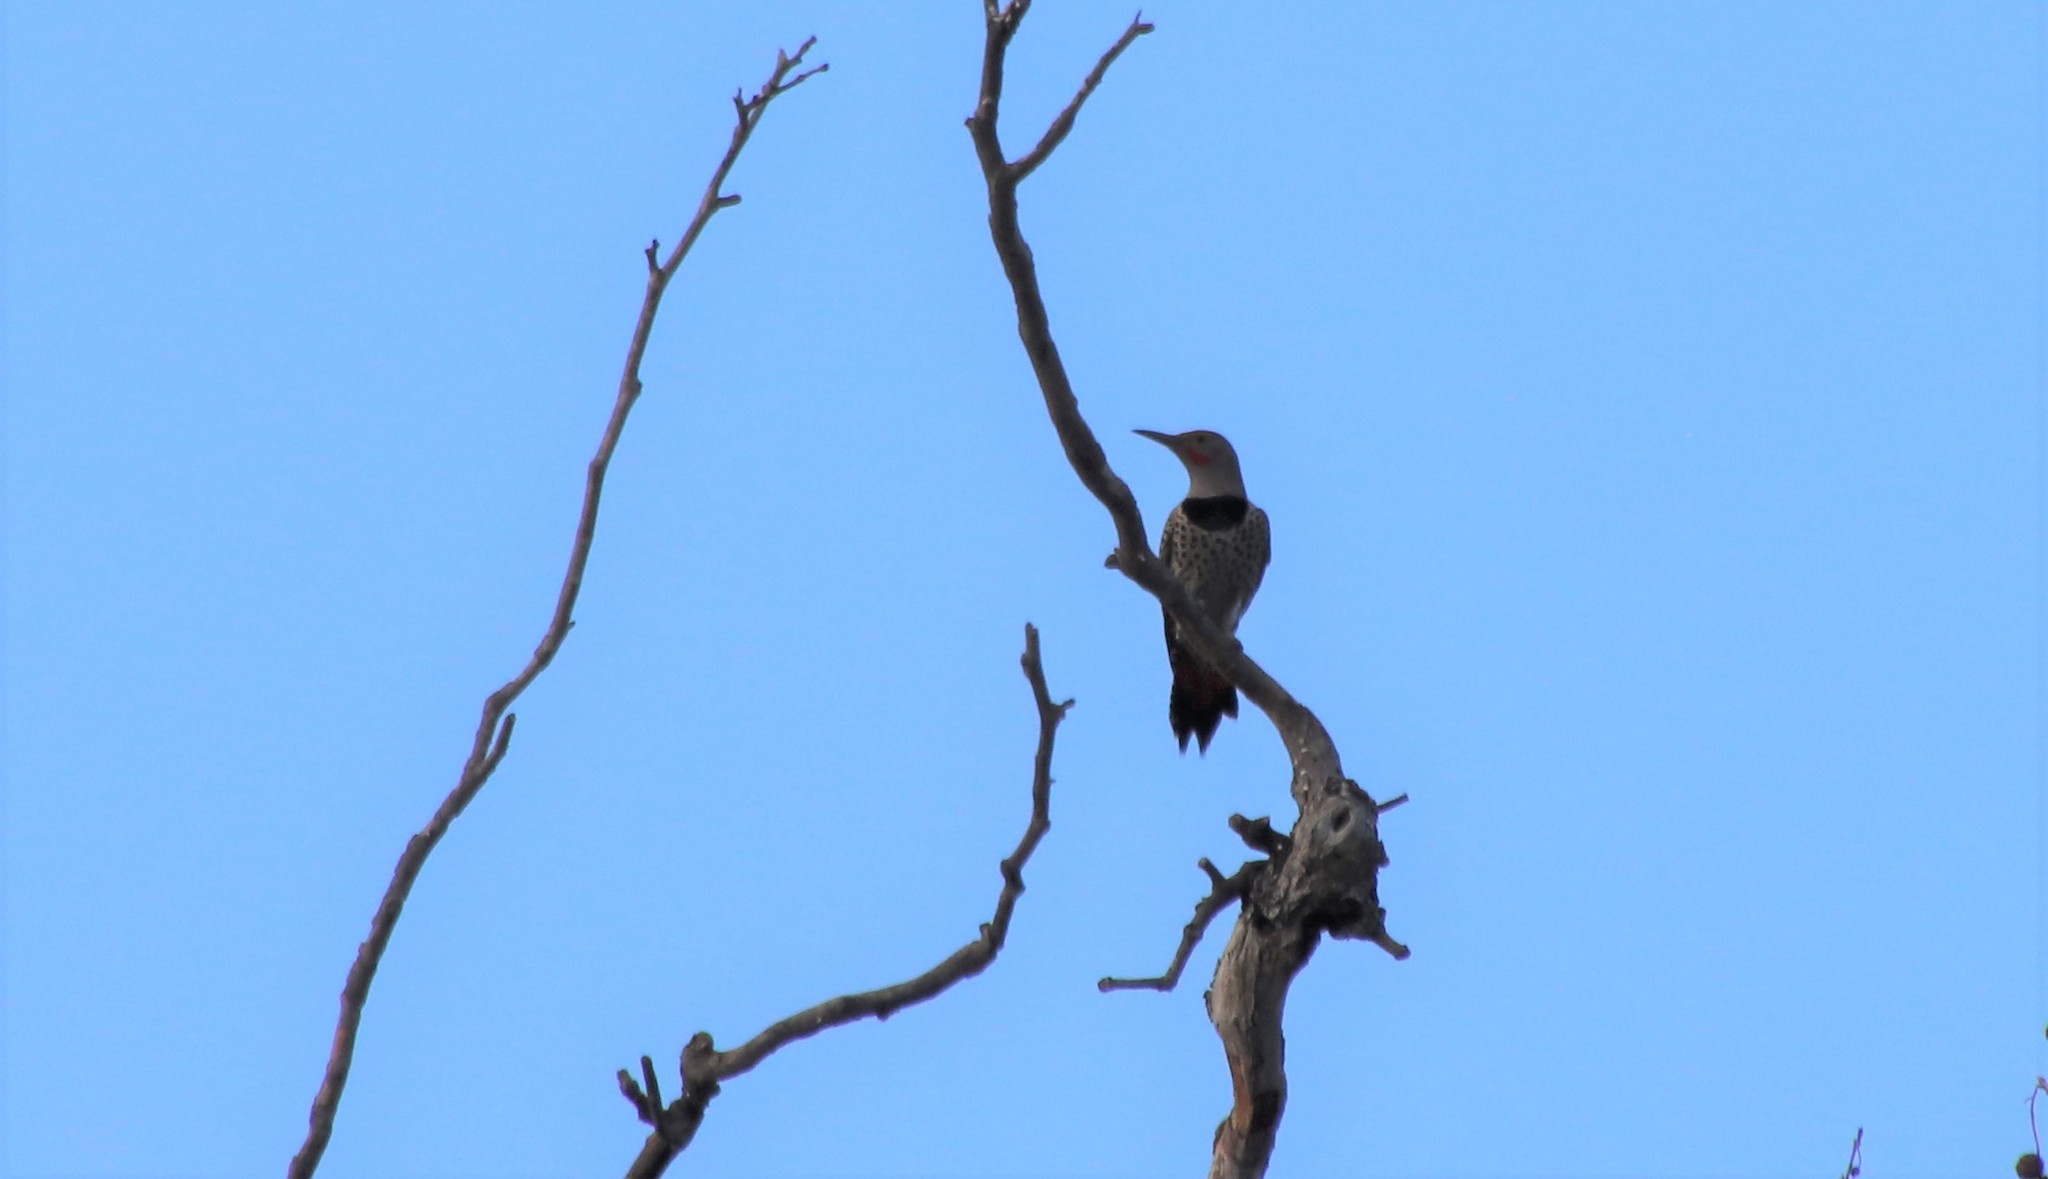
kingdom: Animalia
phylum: Chordata
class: Aves
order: Piciformes
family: Picidae
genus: Colaptes
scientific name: Colaptes auratus
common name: Northern flicker
